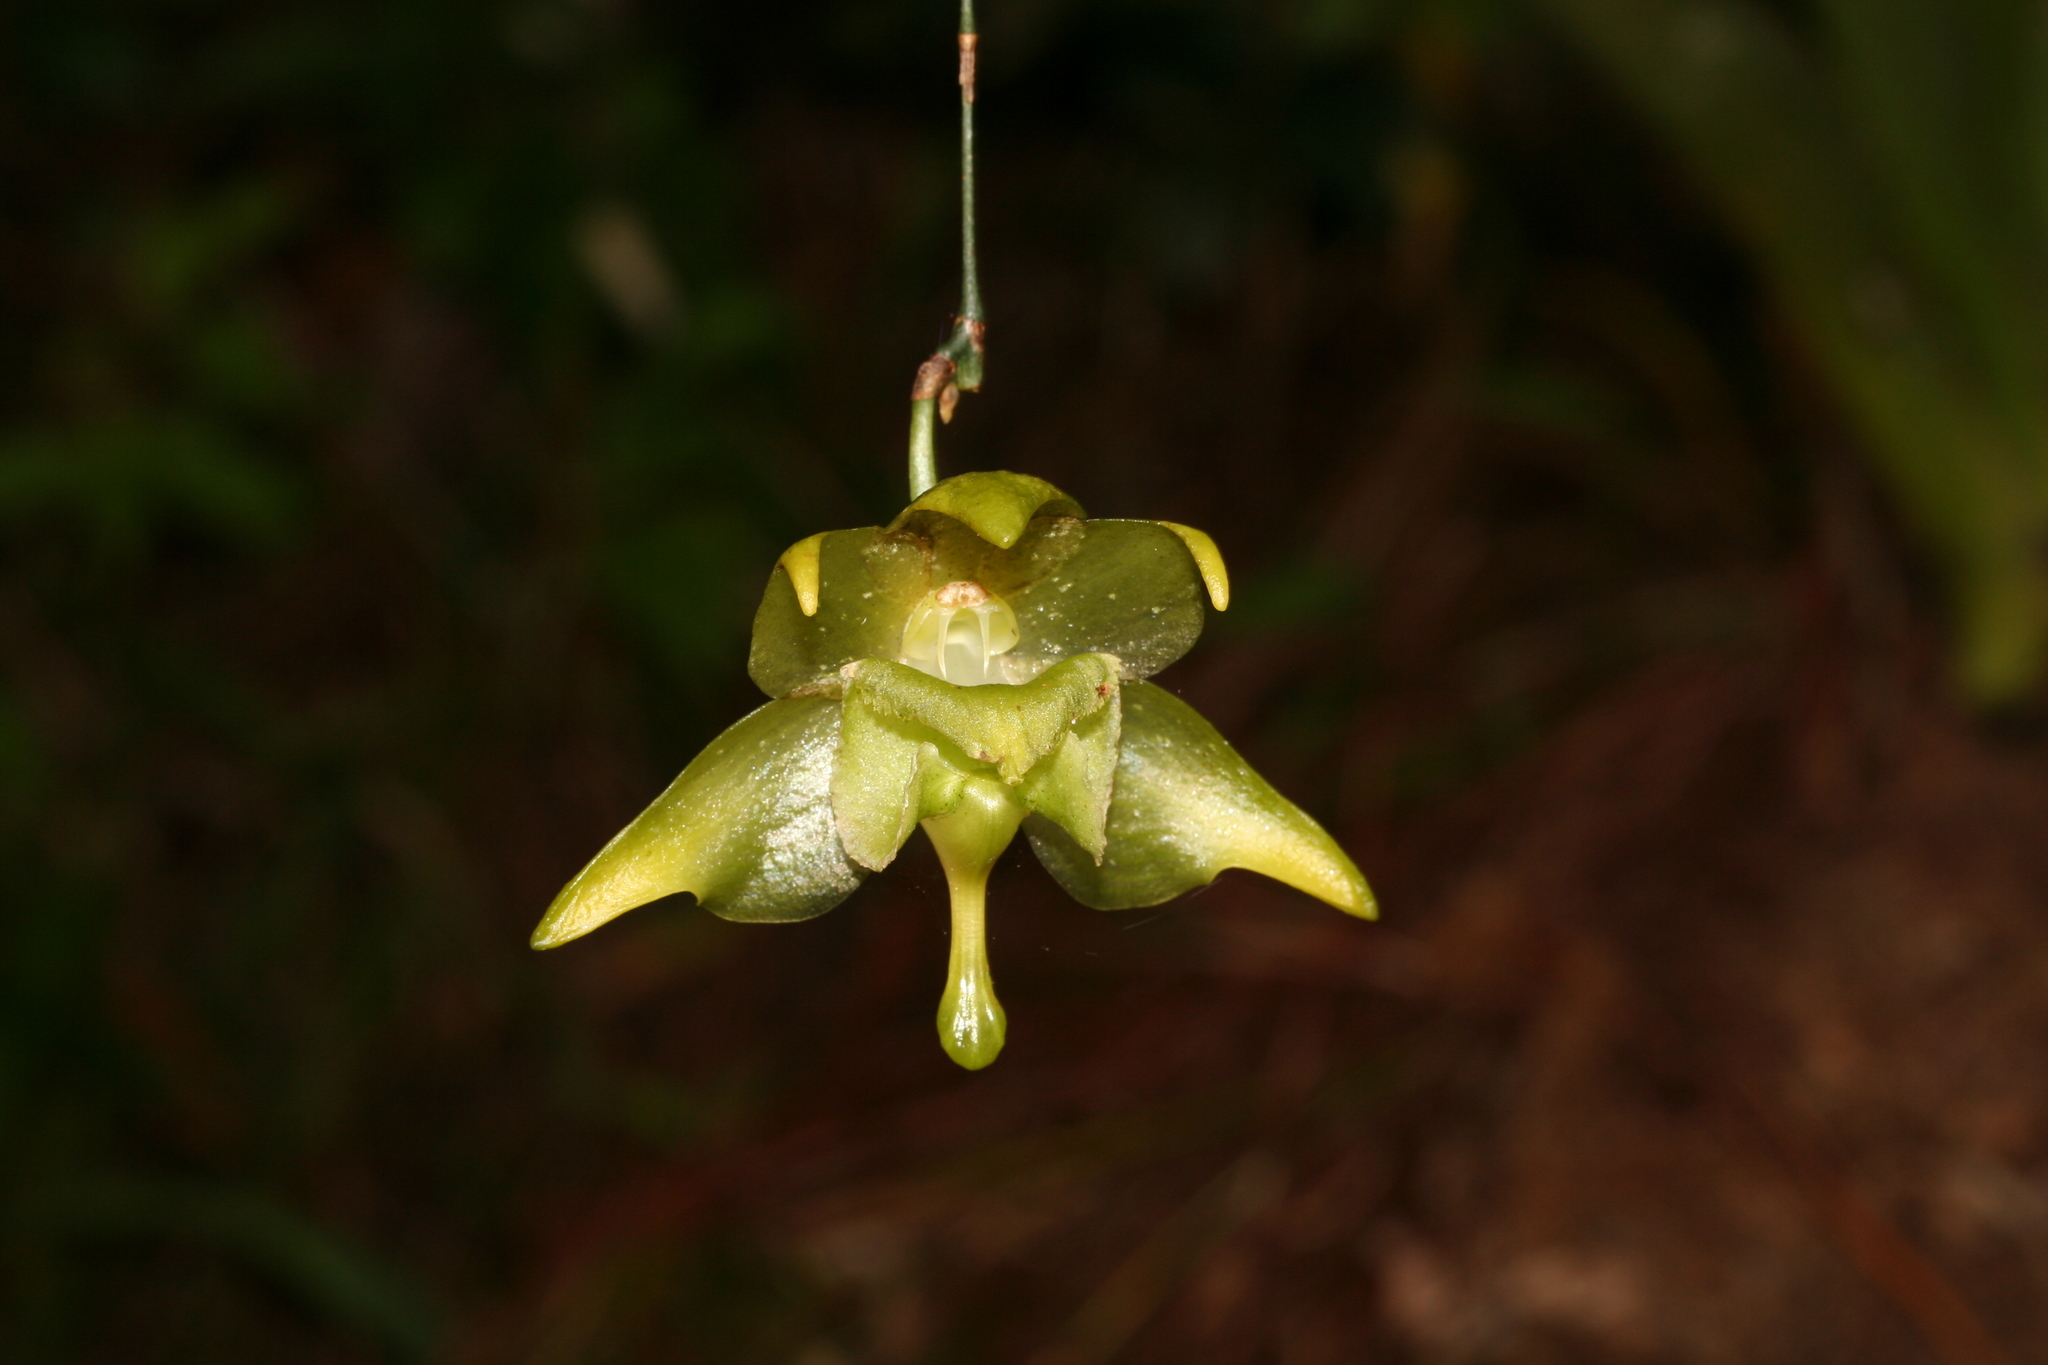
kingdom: Plantae
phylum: Tracheophyta
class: Liliopsida
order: Asparagales
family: Orchidaceae
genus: Aeranthes
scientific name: Aeranthes denticulata
